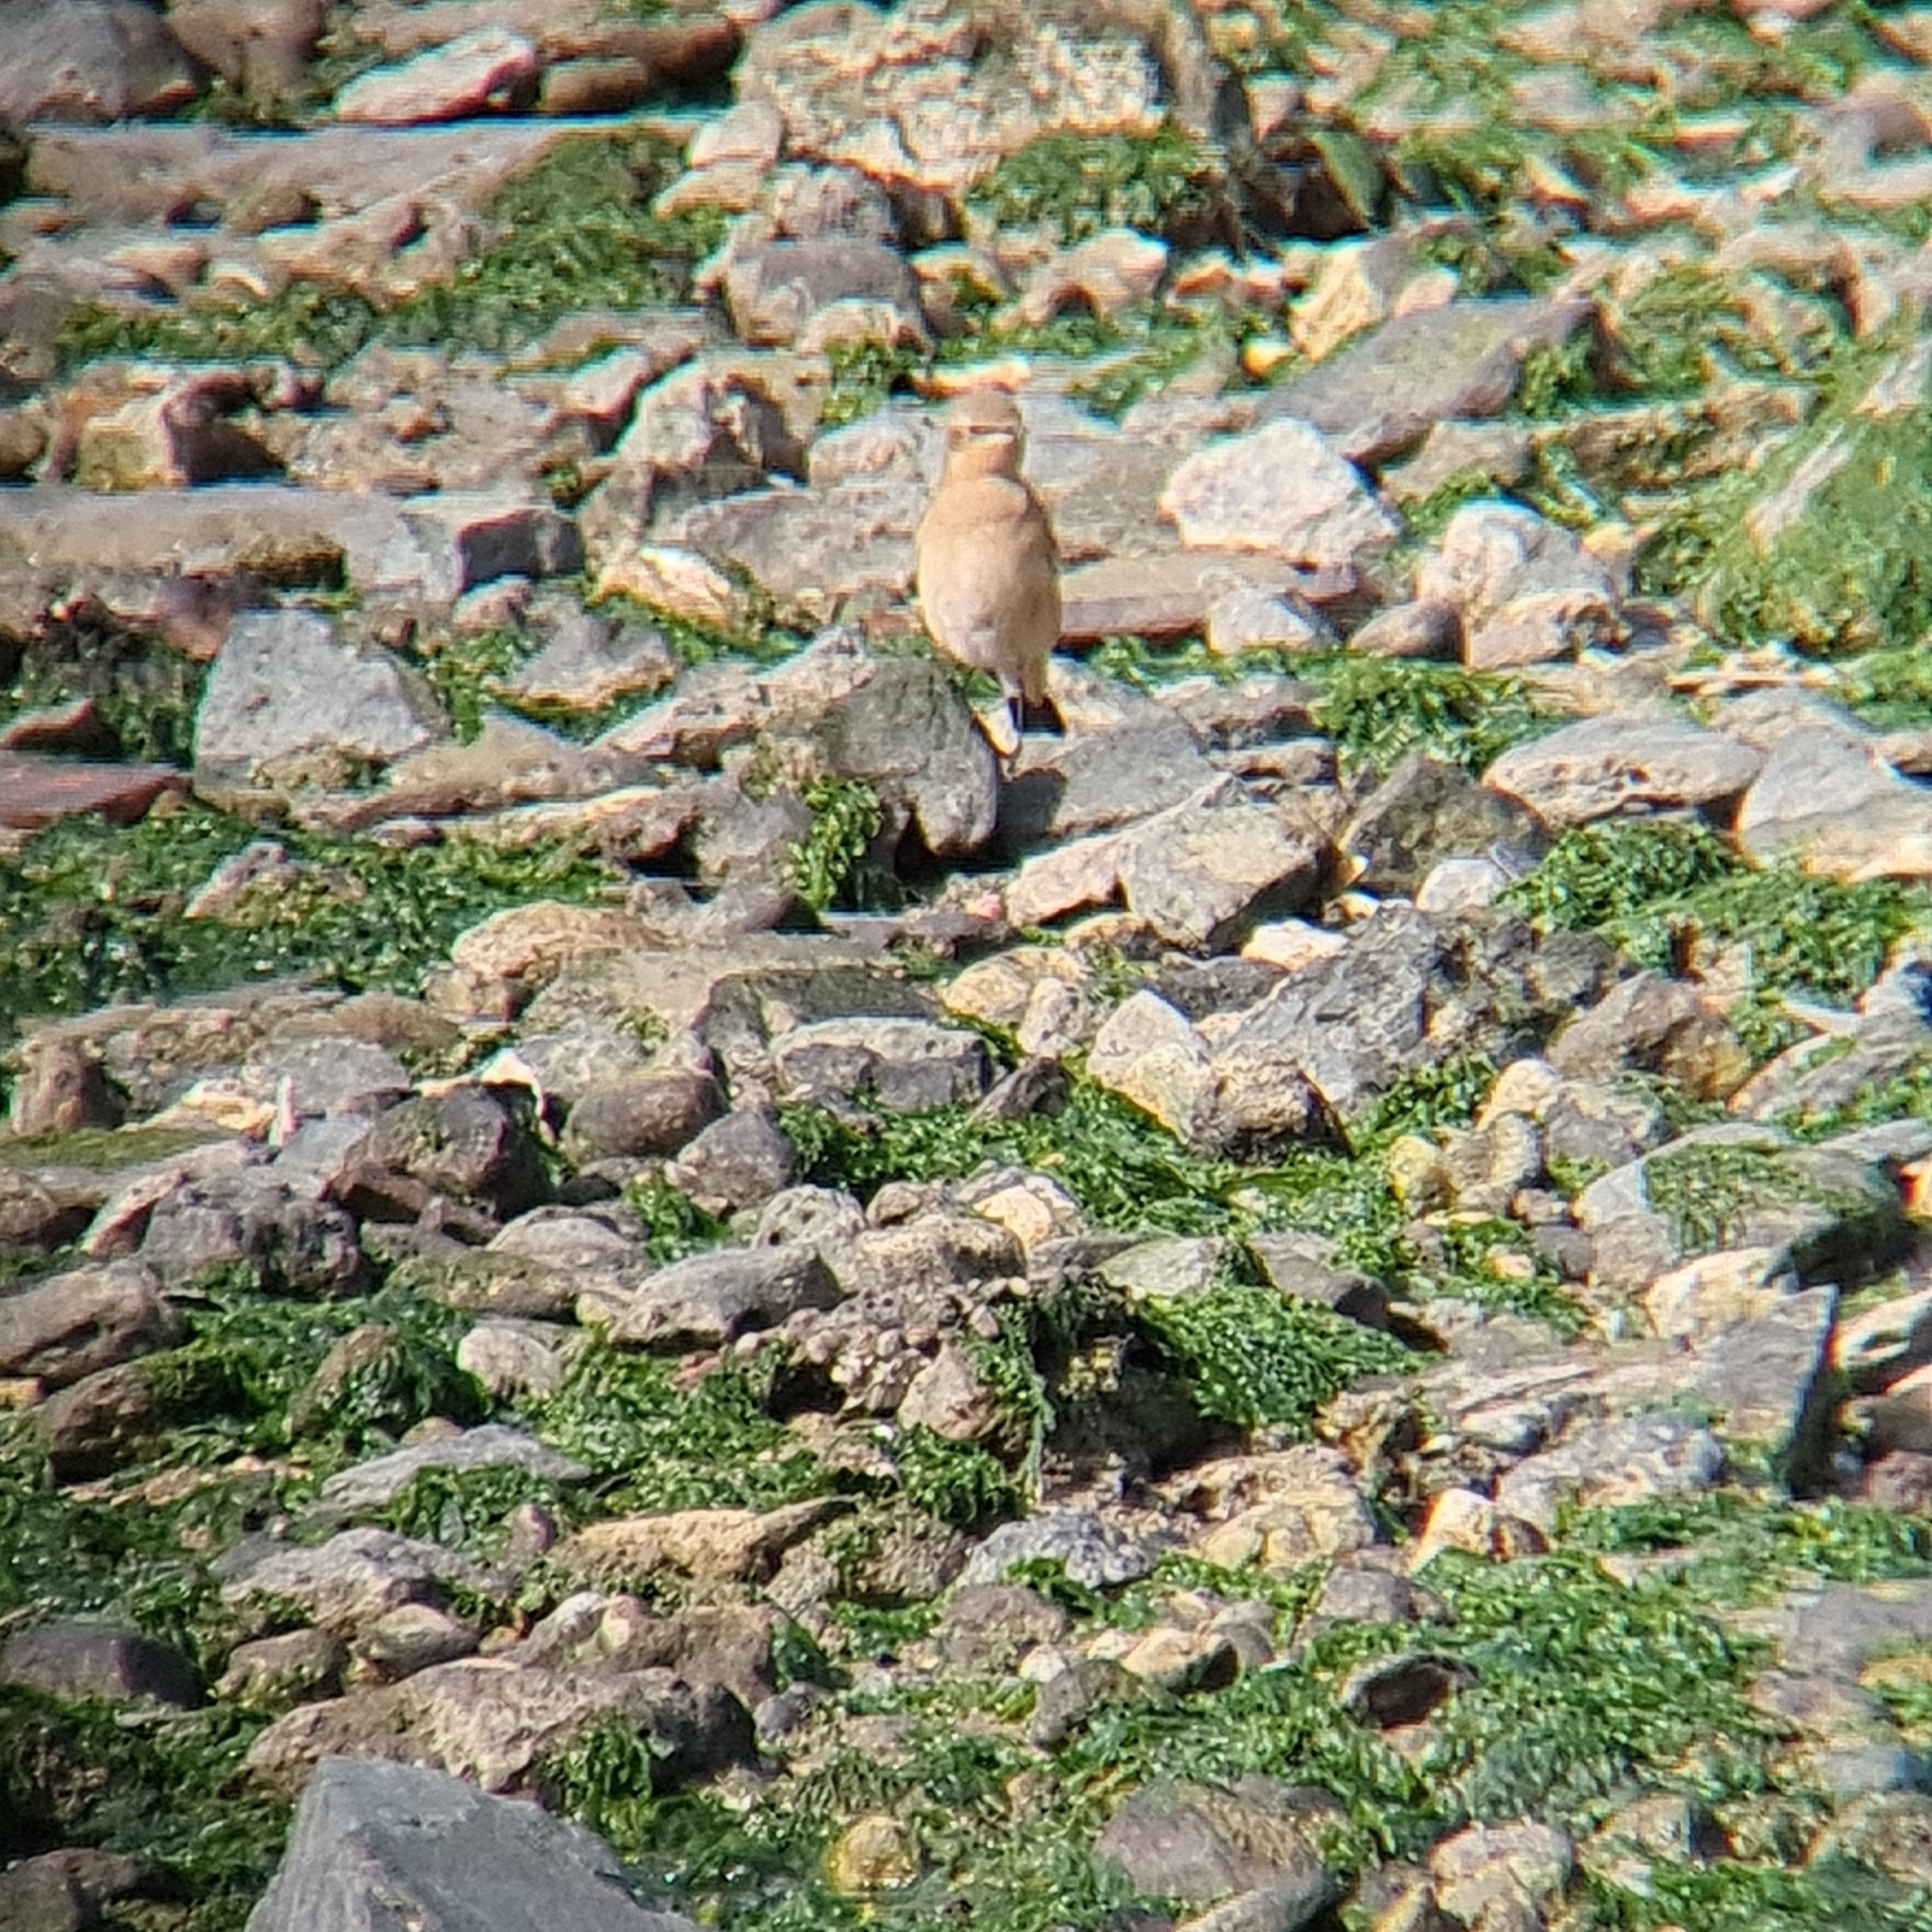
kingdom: Animalia
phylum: Chordata
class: Aves
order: Passeriformes
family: Muscicapidae
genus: Oenanthe
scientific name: Oenanthe oenanthe
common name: Northern wheatear
